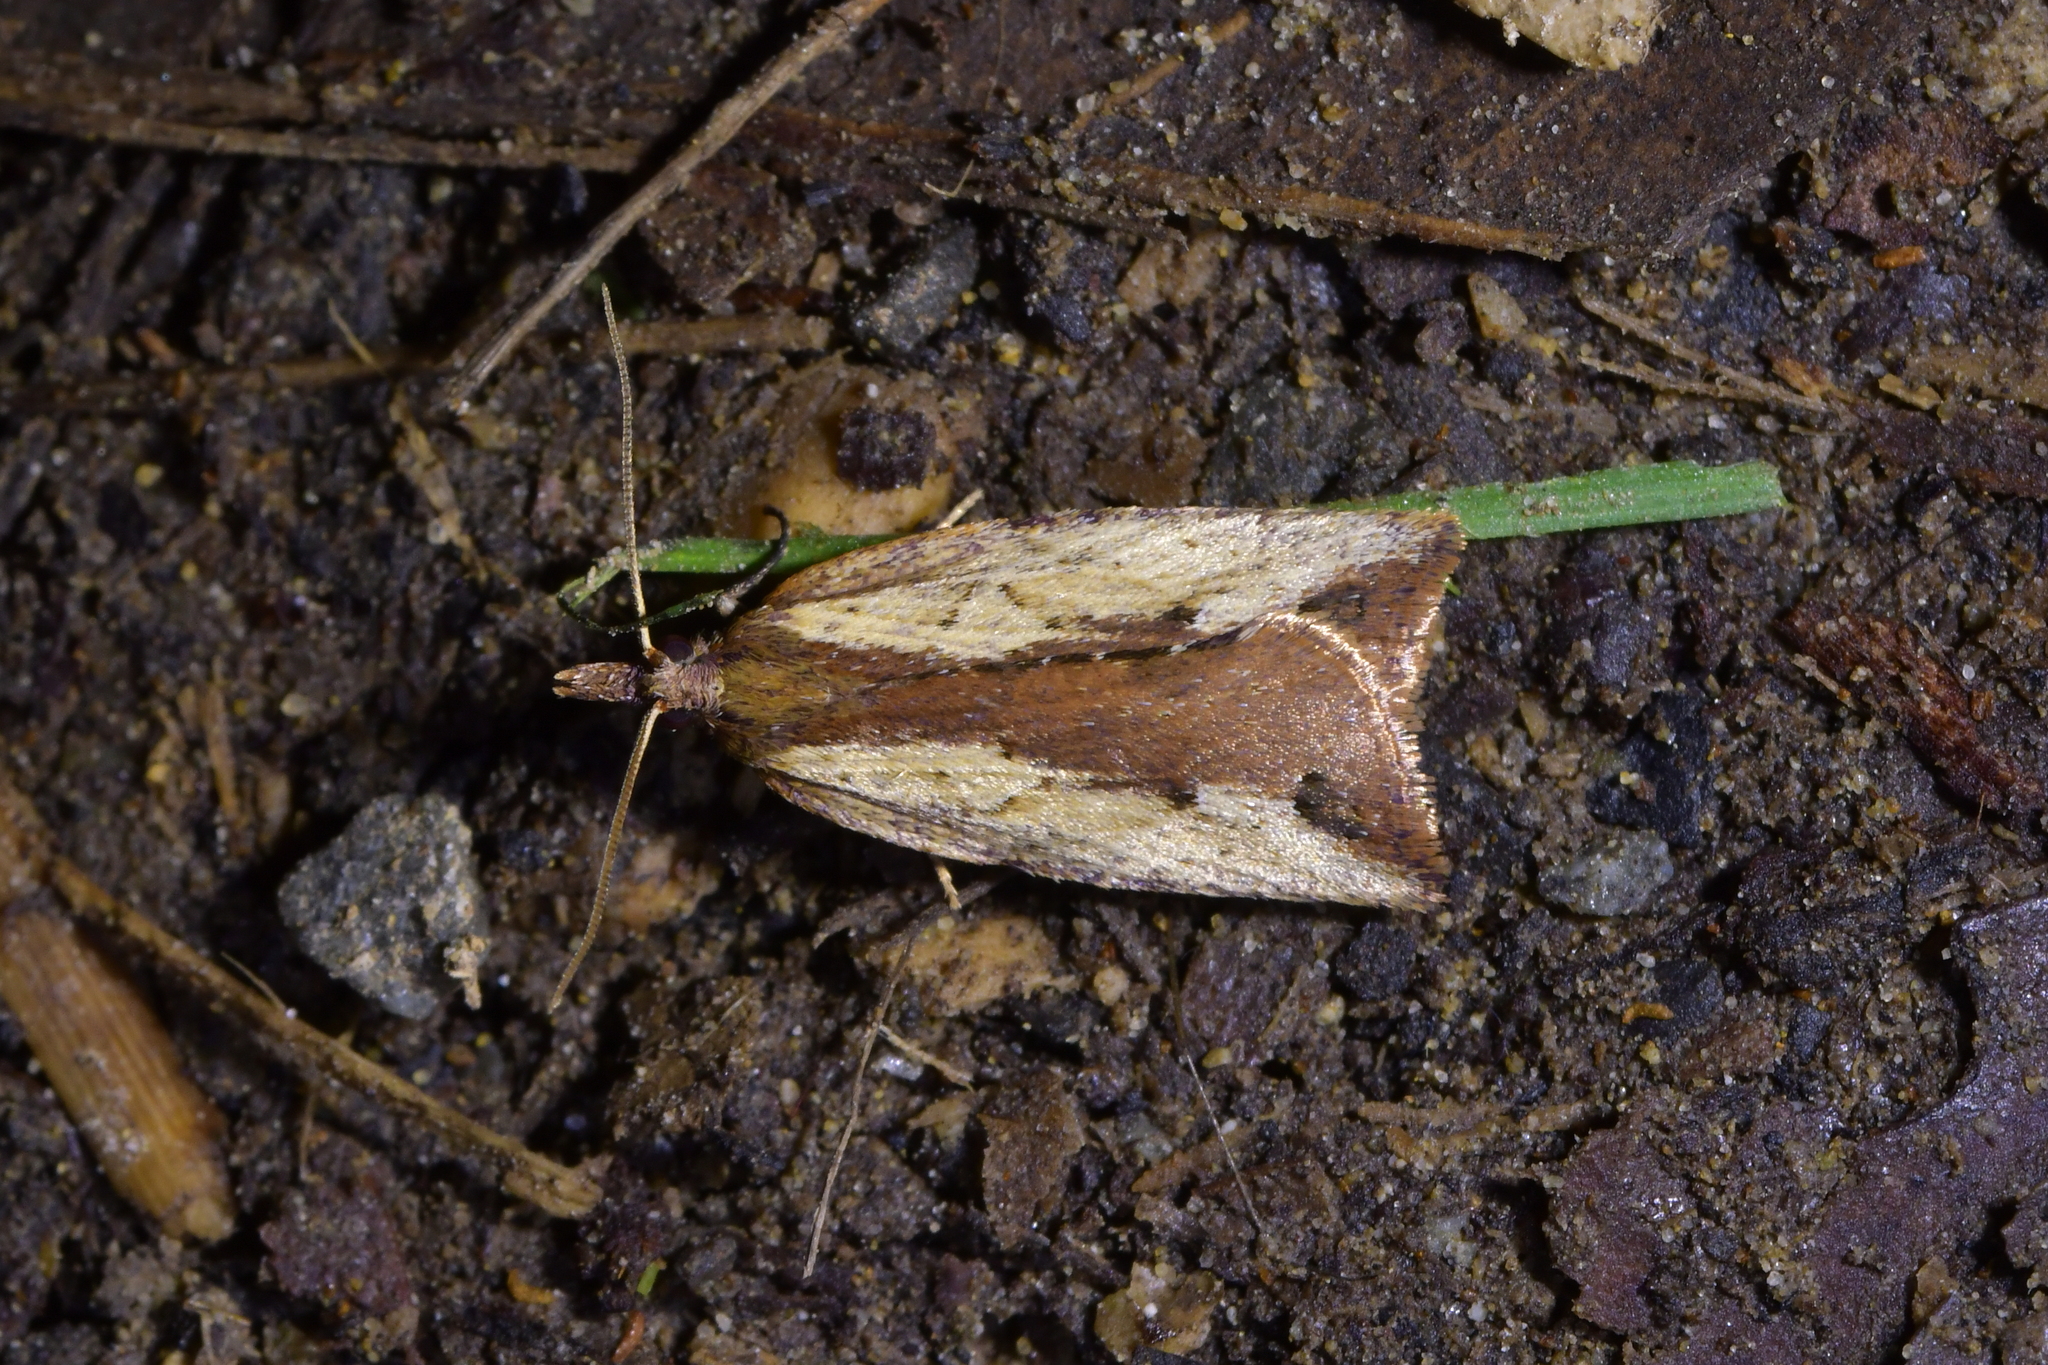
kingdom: Animalia
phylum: Arthropoda
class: Insecta
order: Lepidoptera
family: Tortricidae
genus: Planotortrix
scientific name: Planotortrix notophaea
